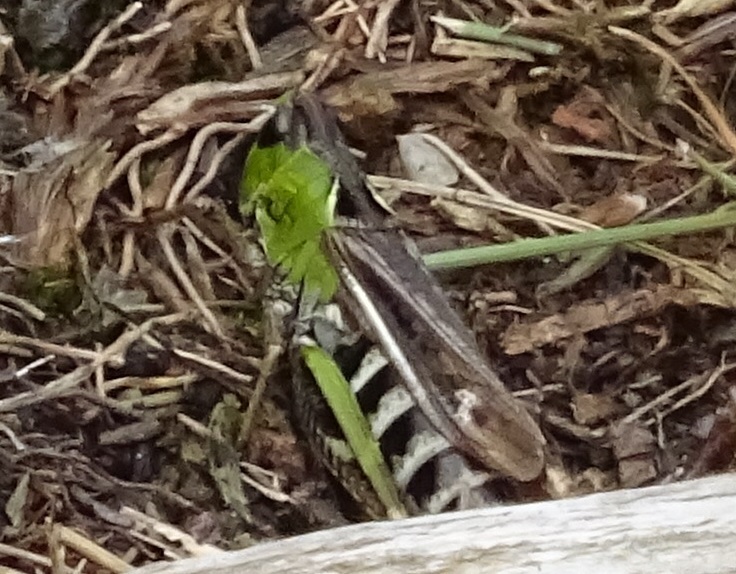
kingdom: Animalia
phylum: Arthropoda
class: Insecta
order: Orthoptera
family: Acrididae
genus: Gomphocerus
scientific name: Gomphocerus sibiricus
